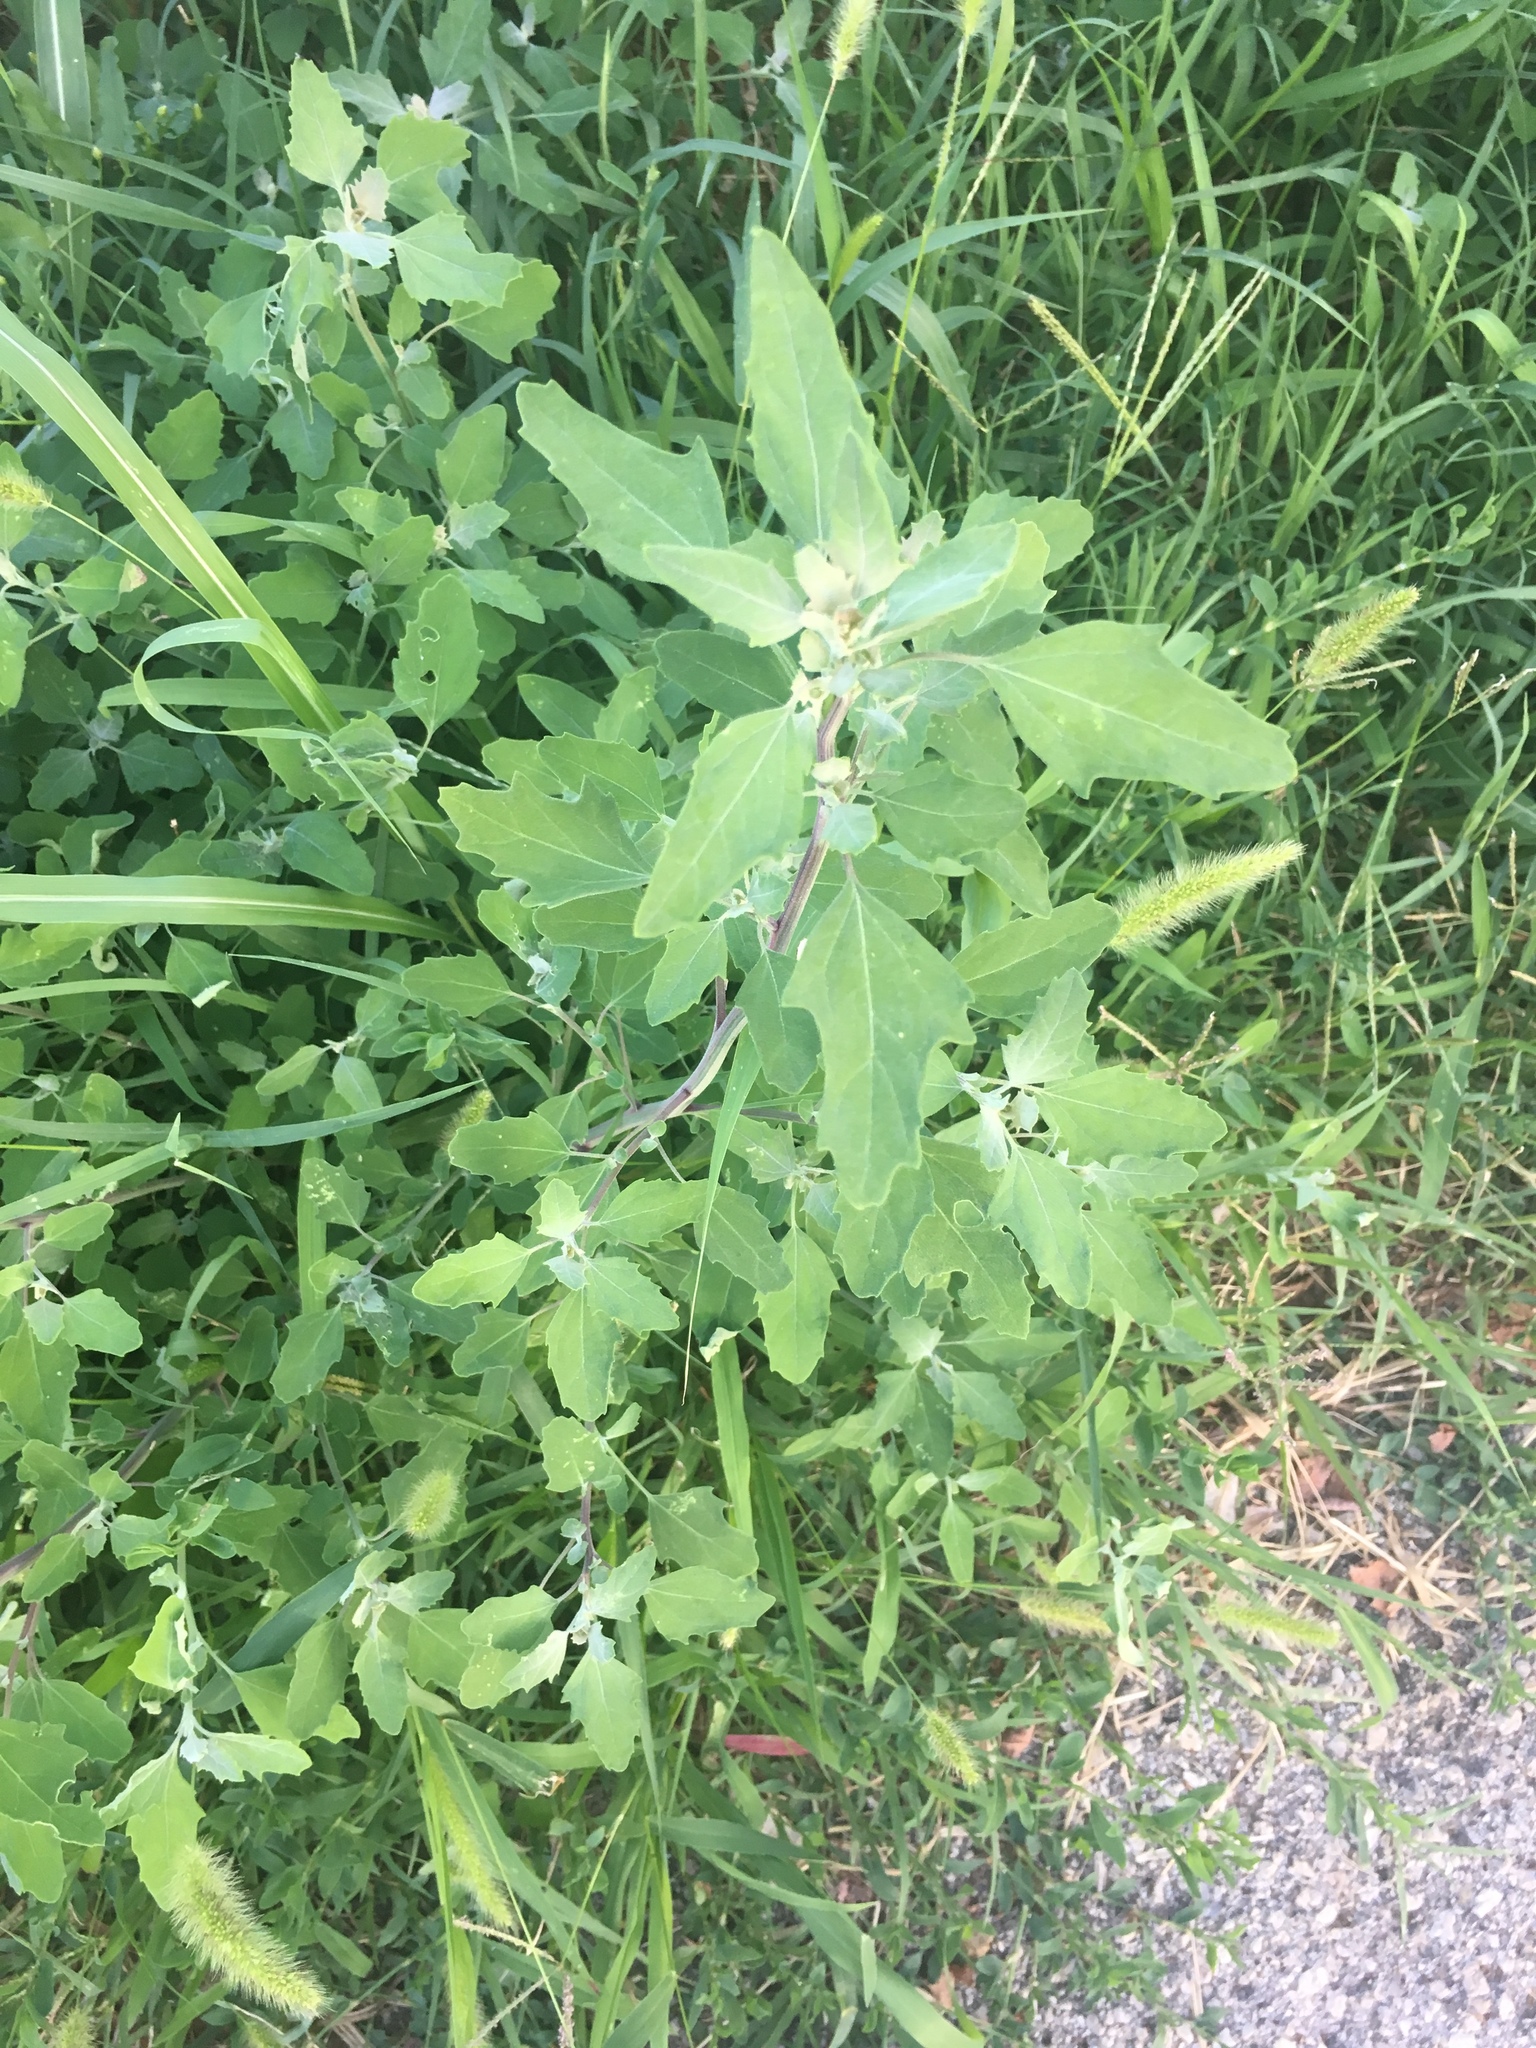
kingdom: Plantae
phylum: Tracheophyta
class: Magnoliopsida
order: Caryophyllales
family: Amaranthaceae
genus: Chenopodium
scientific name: Chenopodium album
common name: Fat-hen
